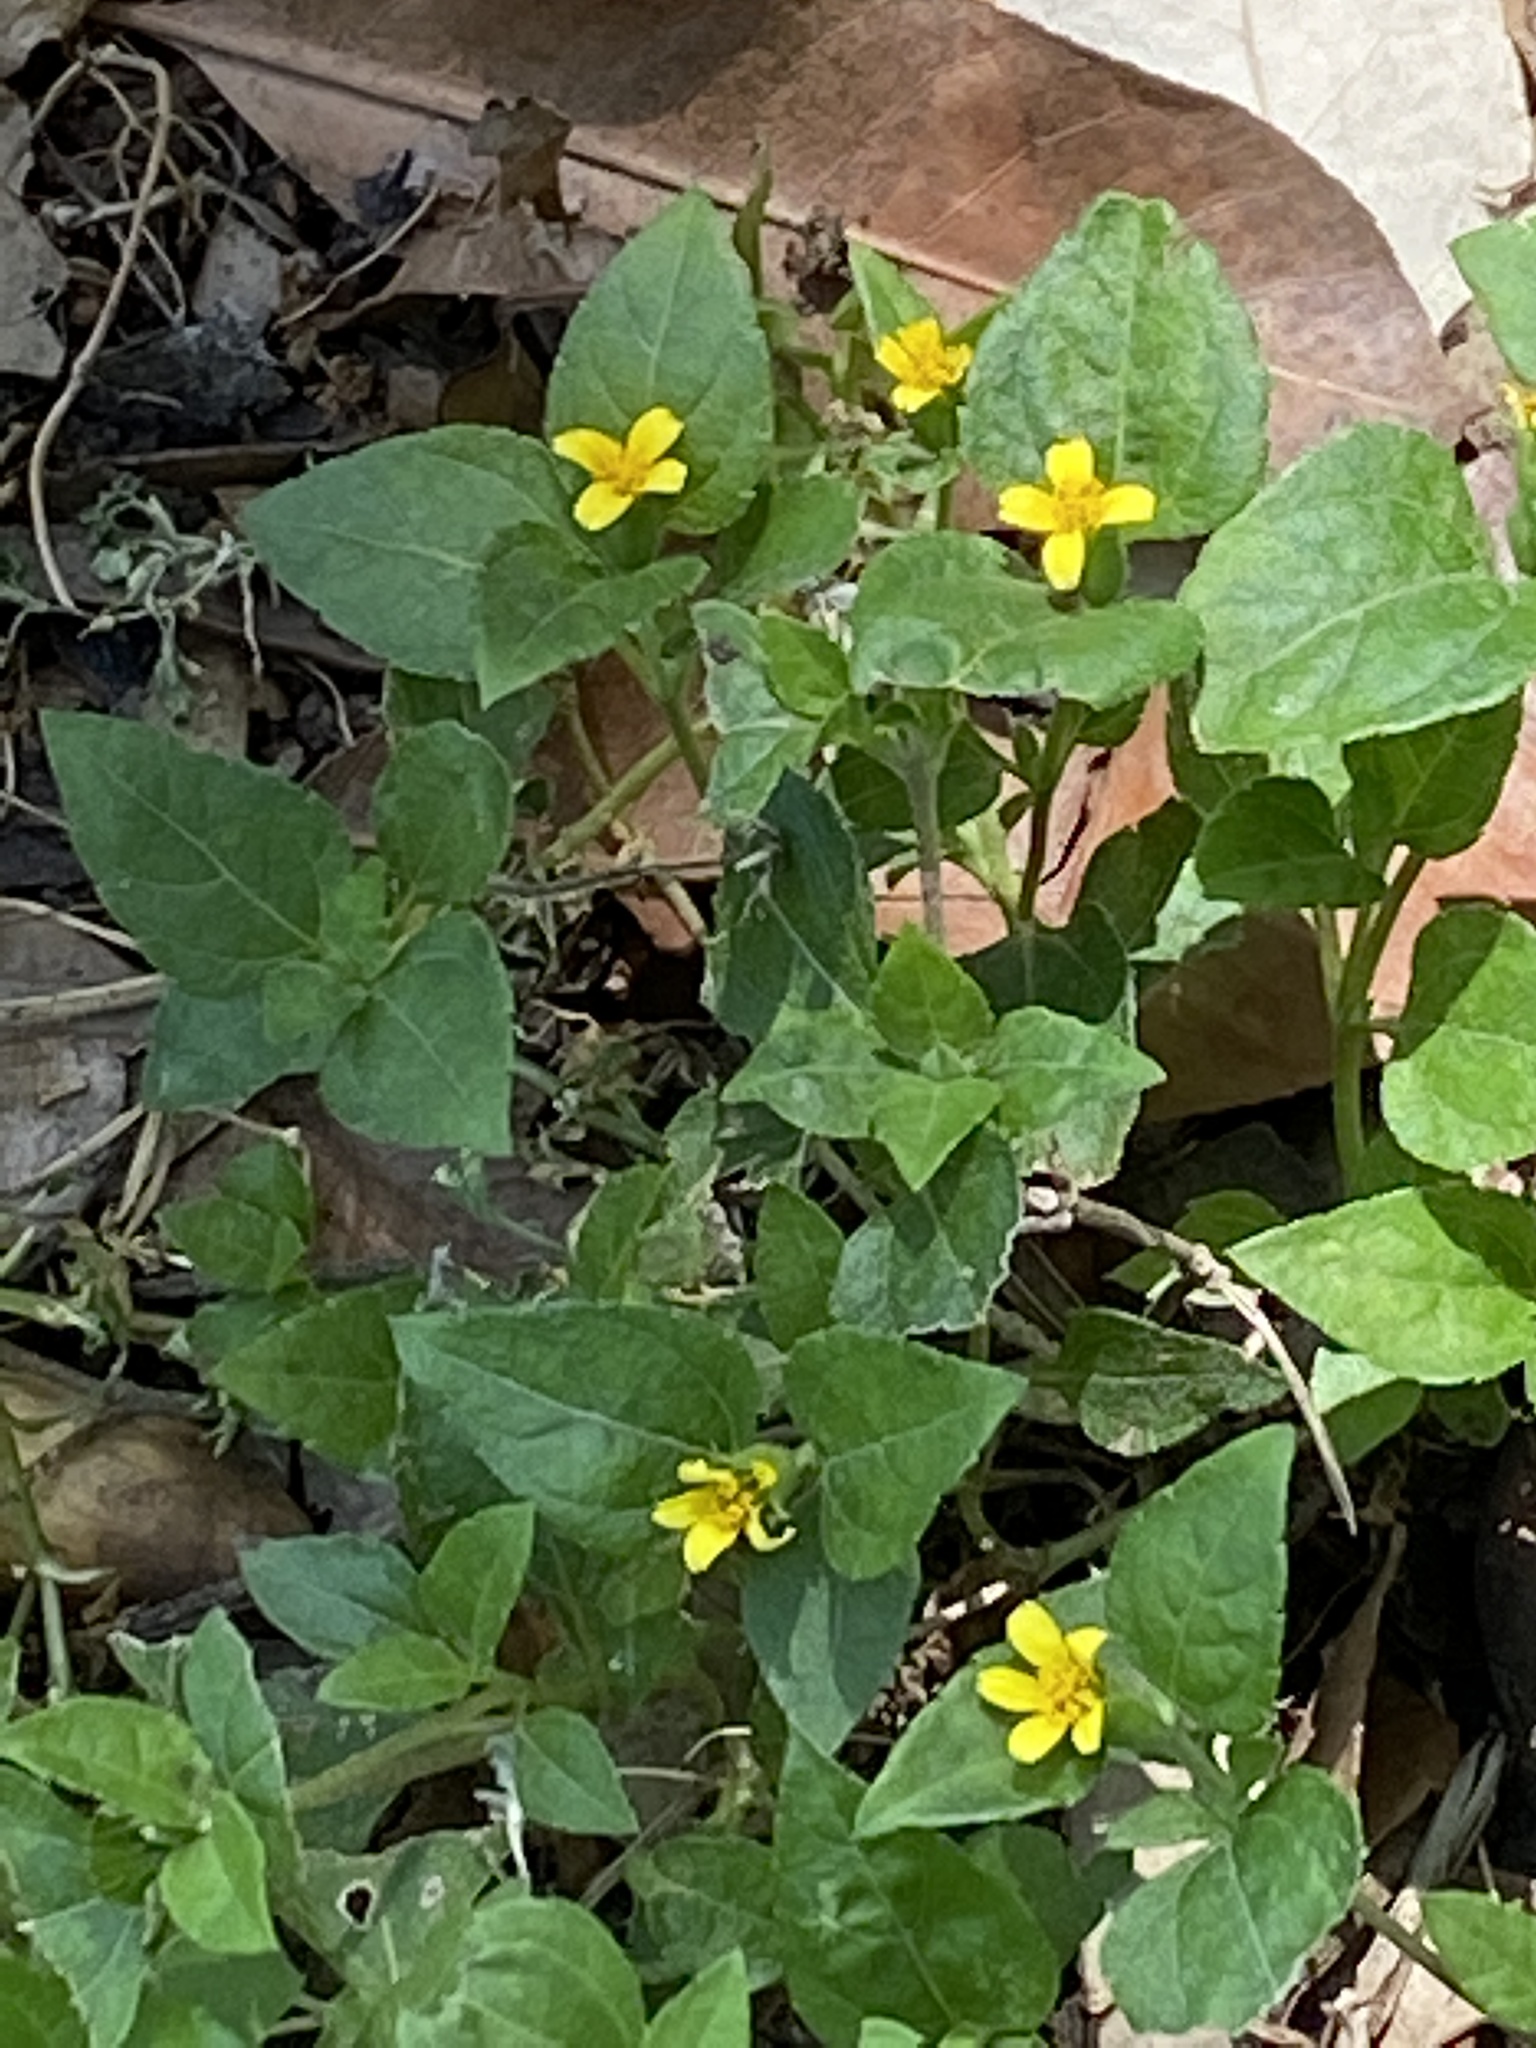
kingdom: Plantae
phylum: Tracheophyta
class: Magnoliopsida
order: Asterales
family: Asteraceae
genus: Calyptocarpus
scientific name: Calyptocarpus vialis
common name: Straggler daisy
